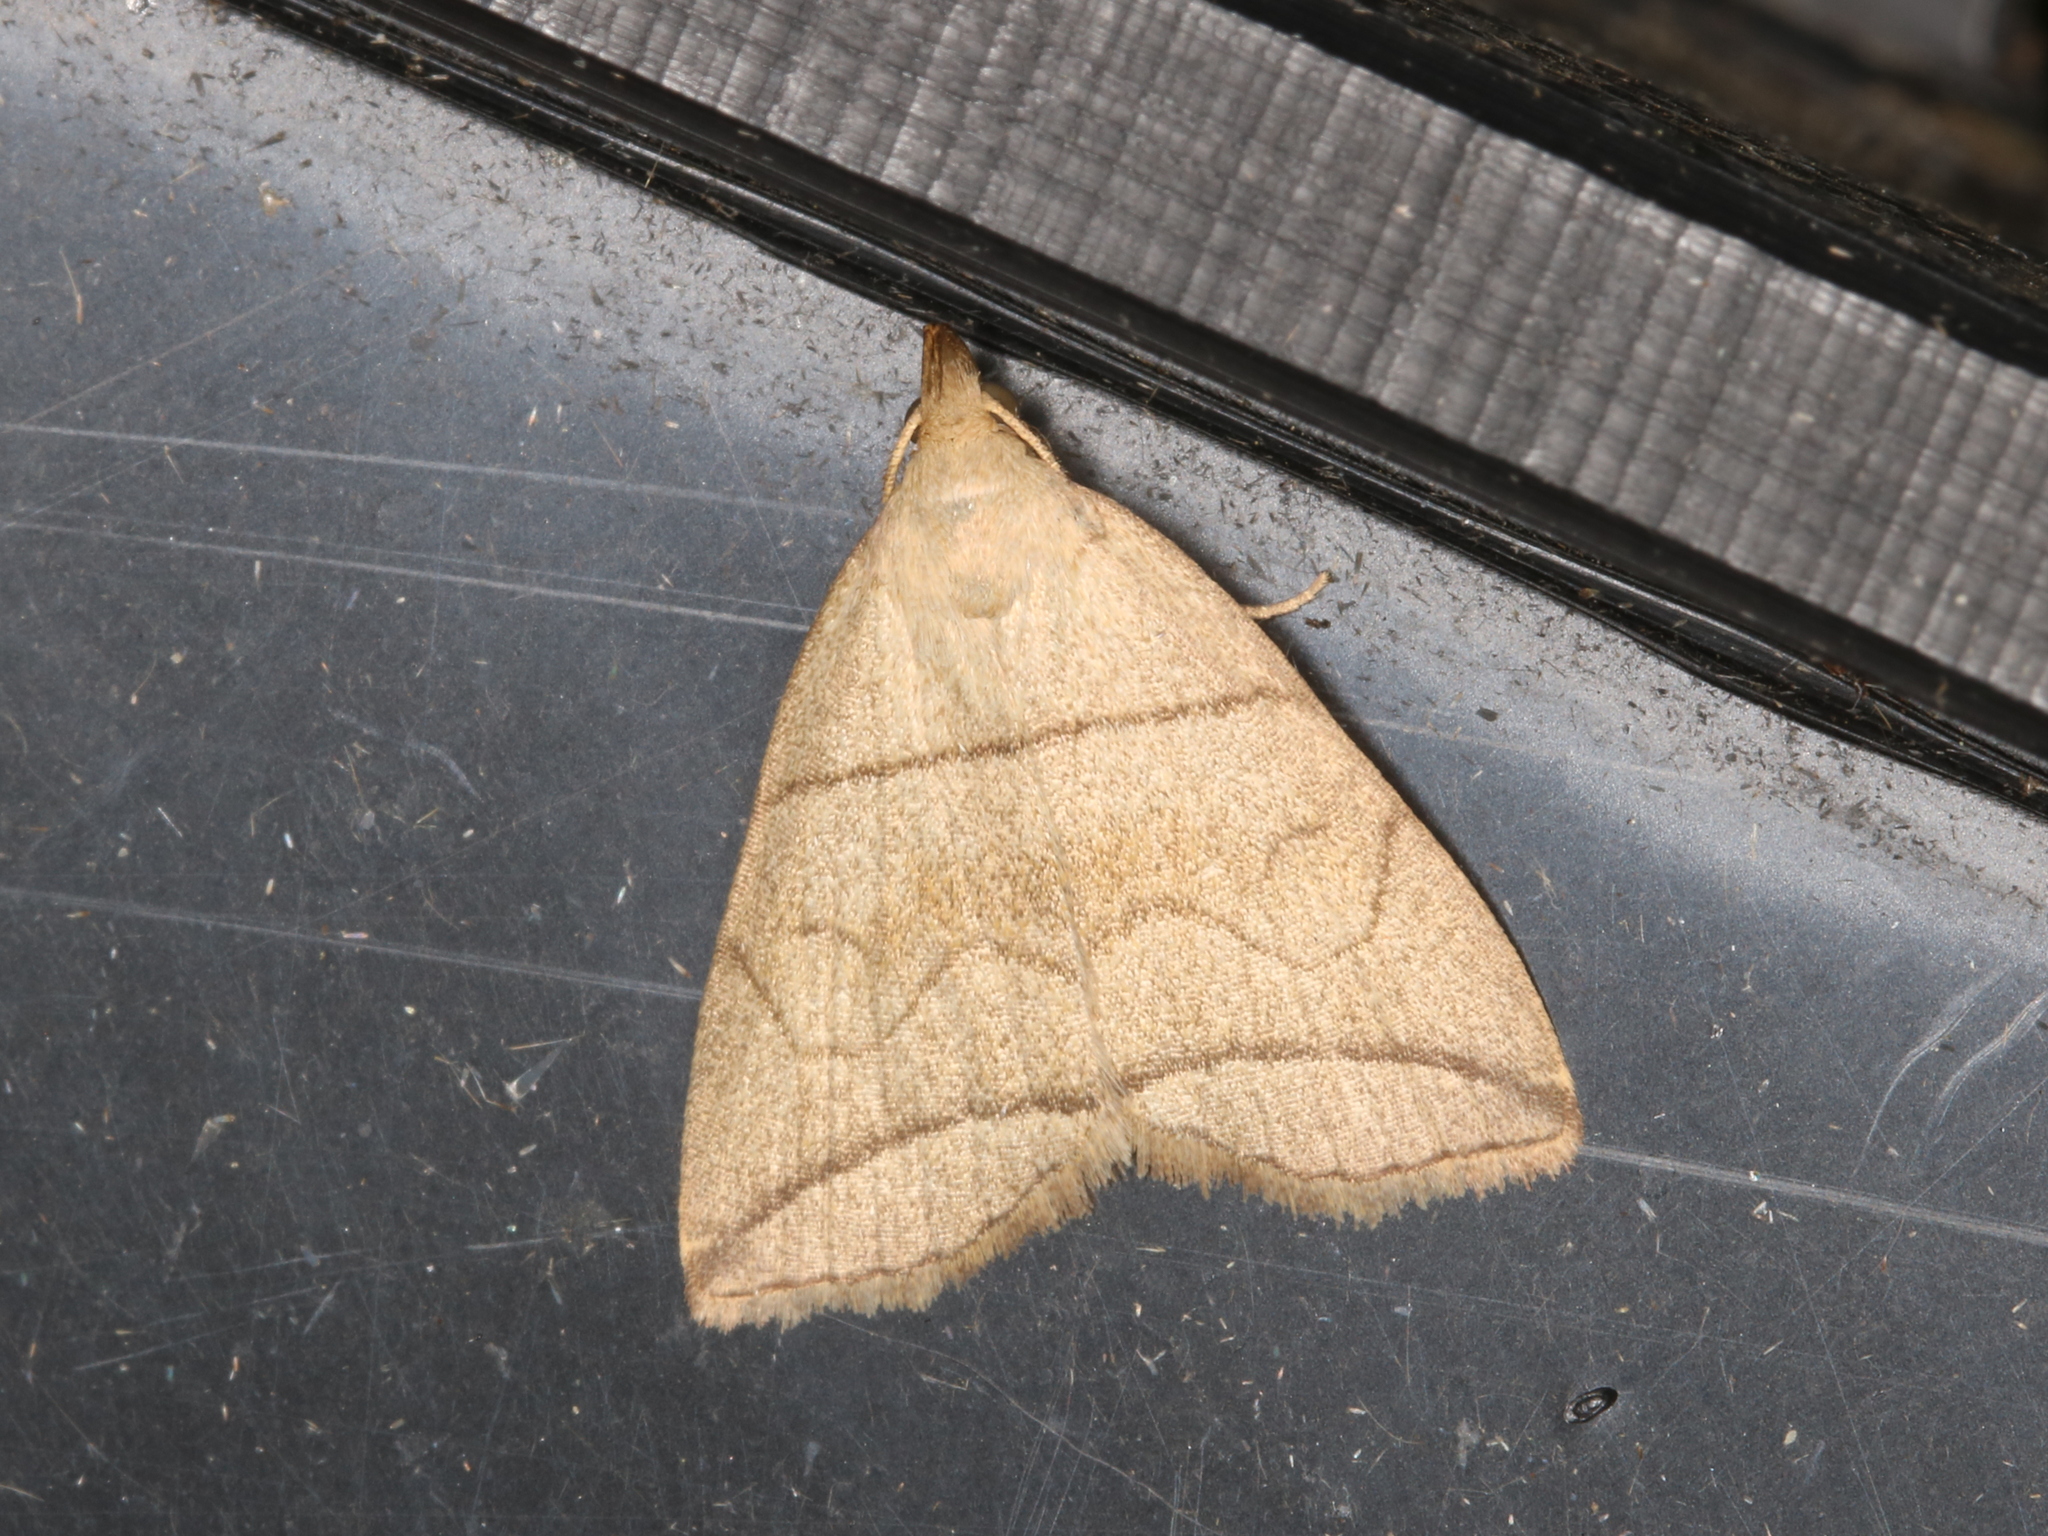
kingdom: Animalia
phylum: Arthropoda
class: Insecta
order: Lepidoptera
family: Erebidae
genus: Herminia
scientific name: Herminia grisealis
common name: Small fan-foot
